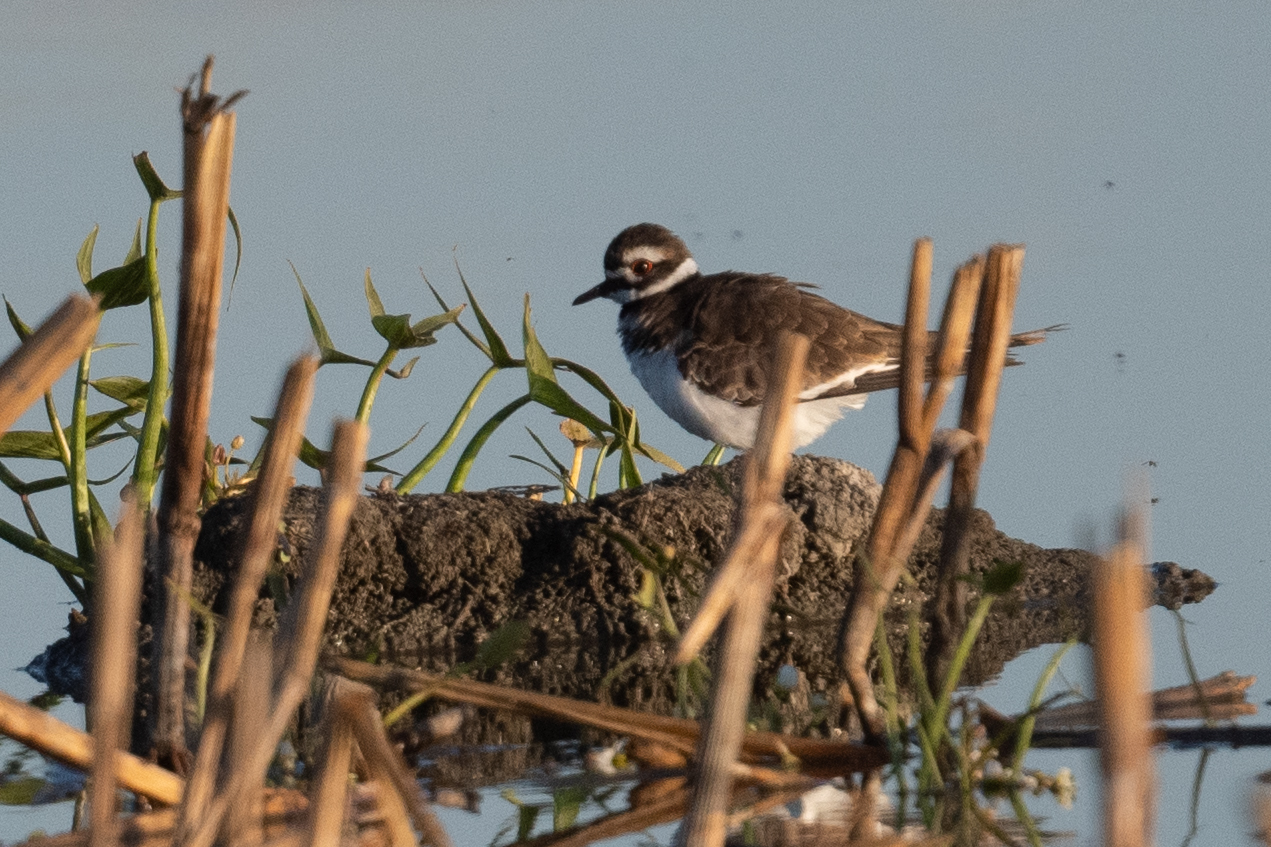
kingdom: Animalia
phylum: Chordata
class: Aves
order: Charadriiformes
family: Charadriidae
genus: Charadrius
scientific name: Charadrius vociferus
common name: Killdeer
